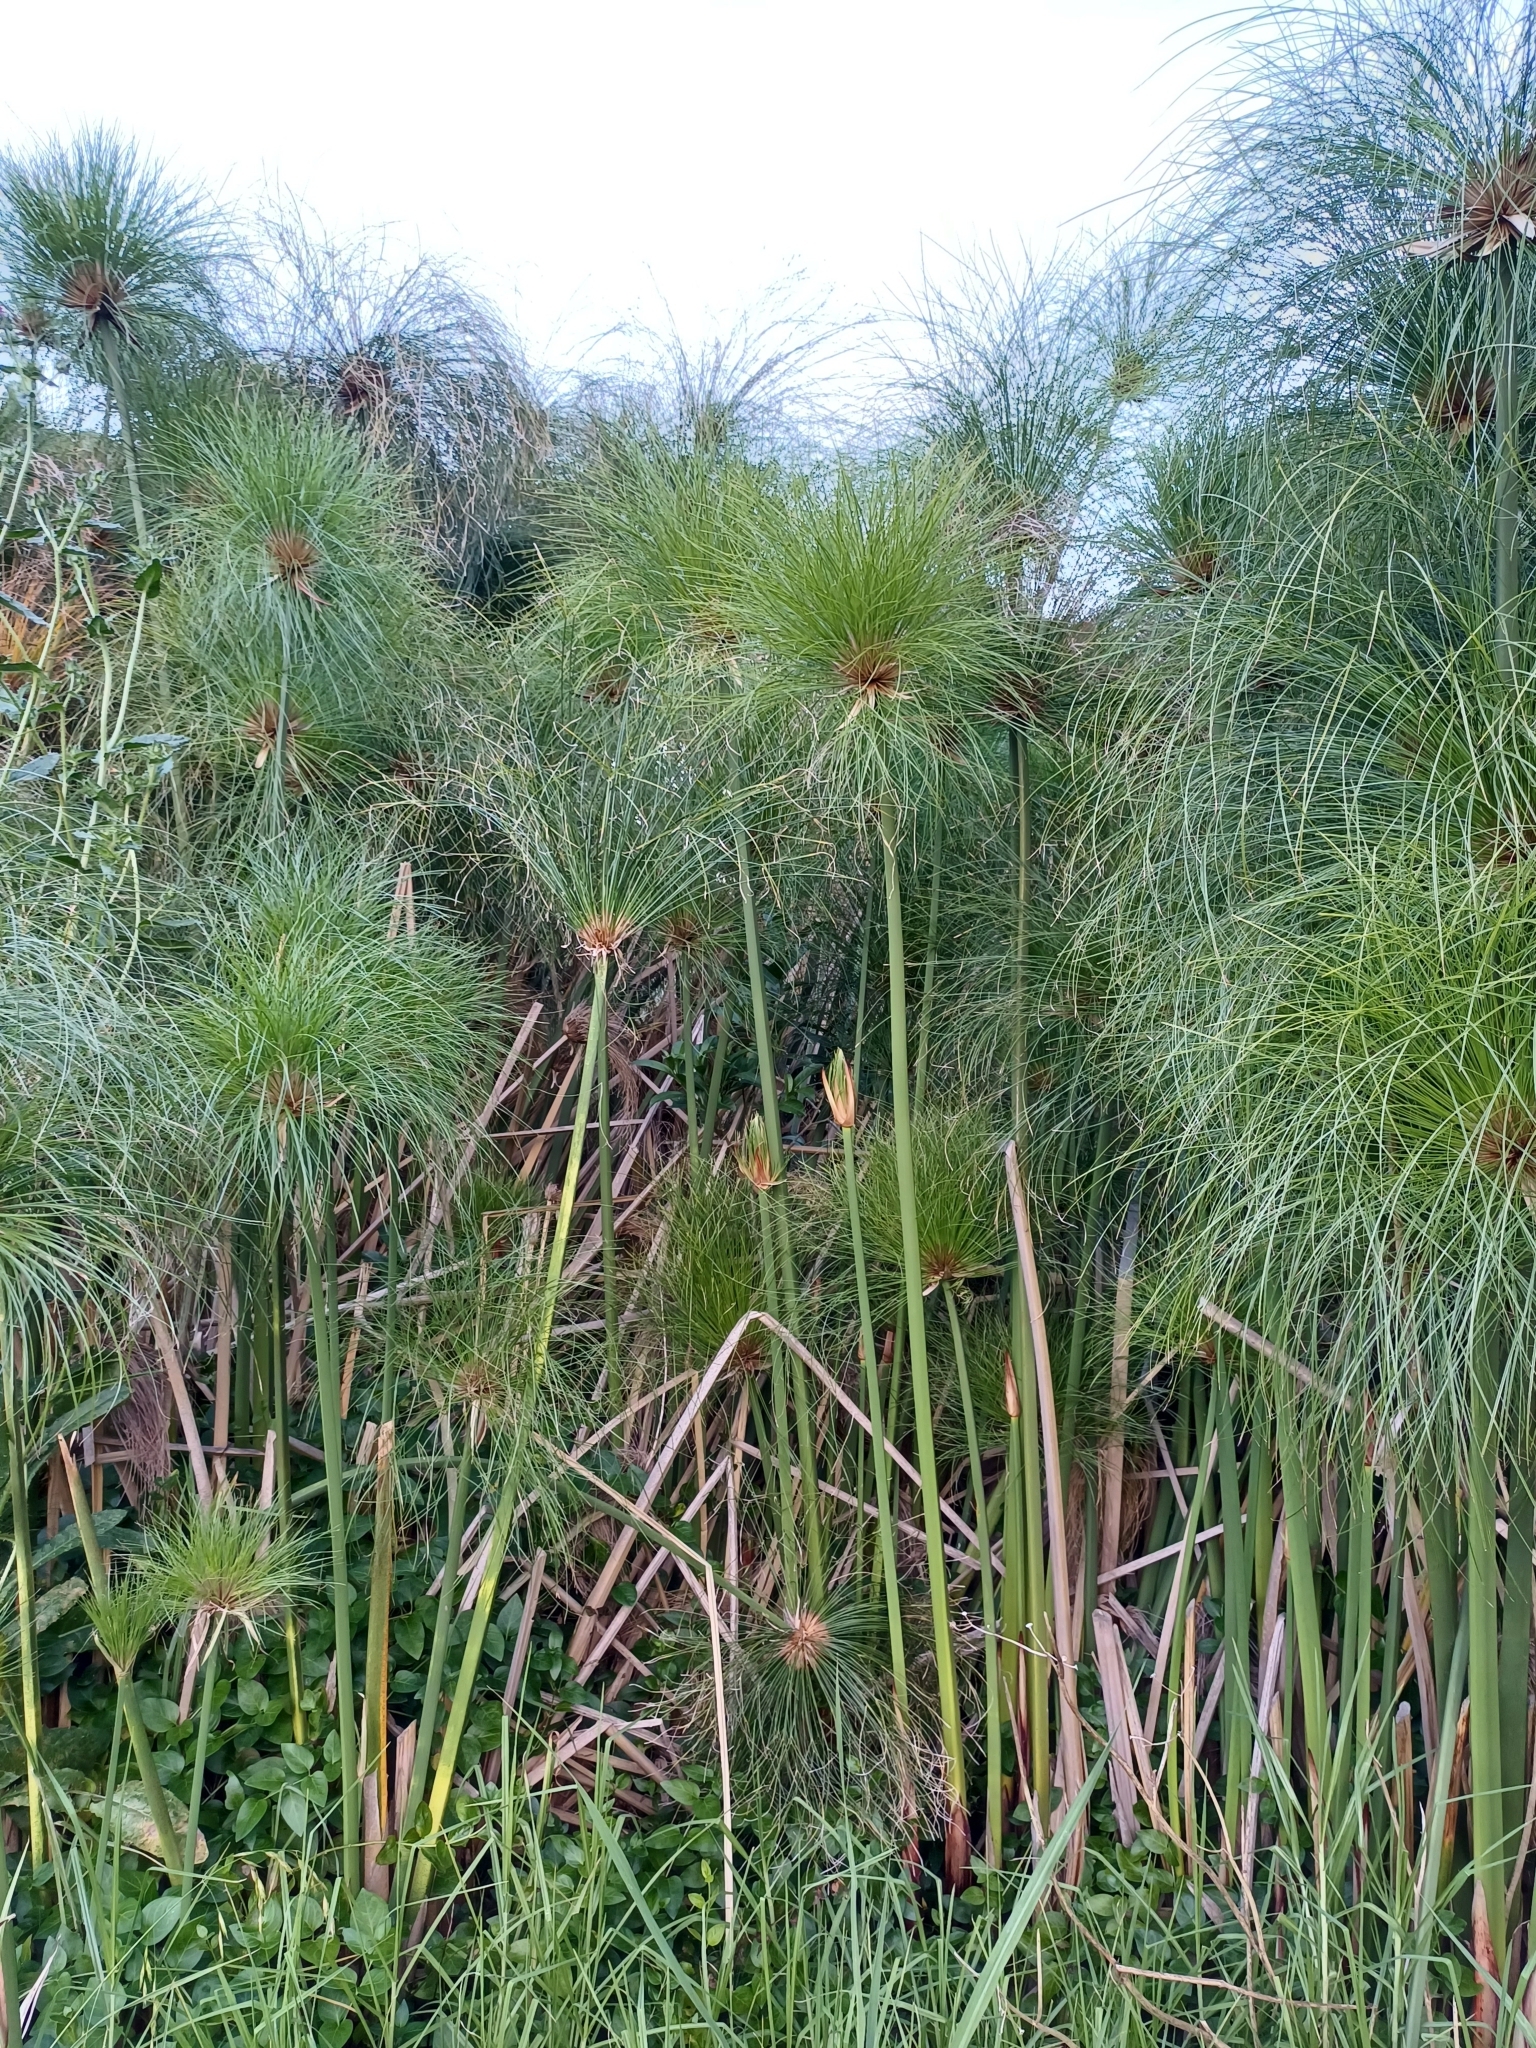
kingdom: Plantae
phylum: Tracheophyta
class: Liliopsida
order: Poales
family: Cyperaceae
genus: Cyperus
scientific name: Cyperus papyrus
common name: Papyrus
